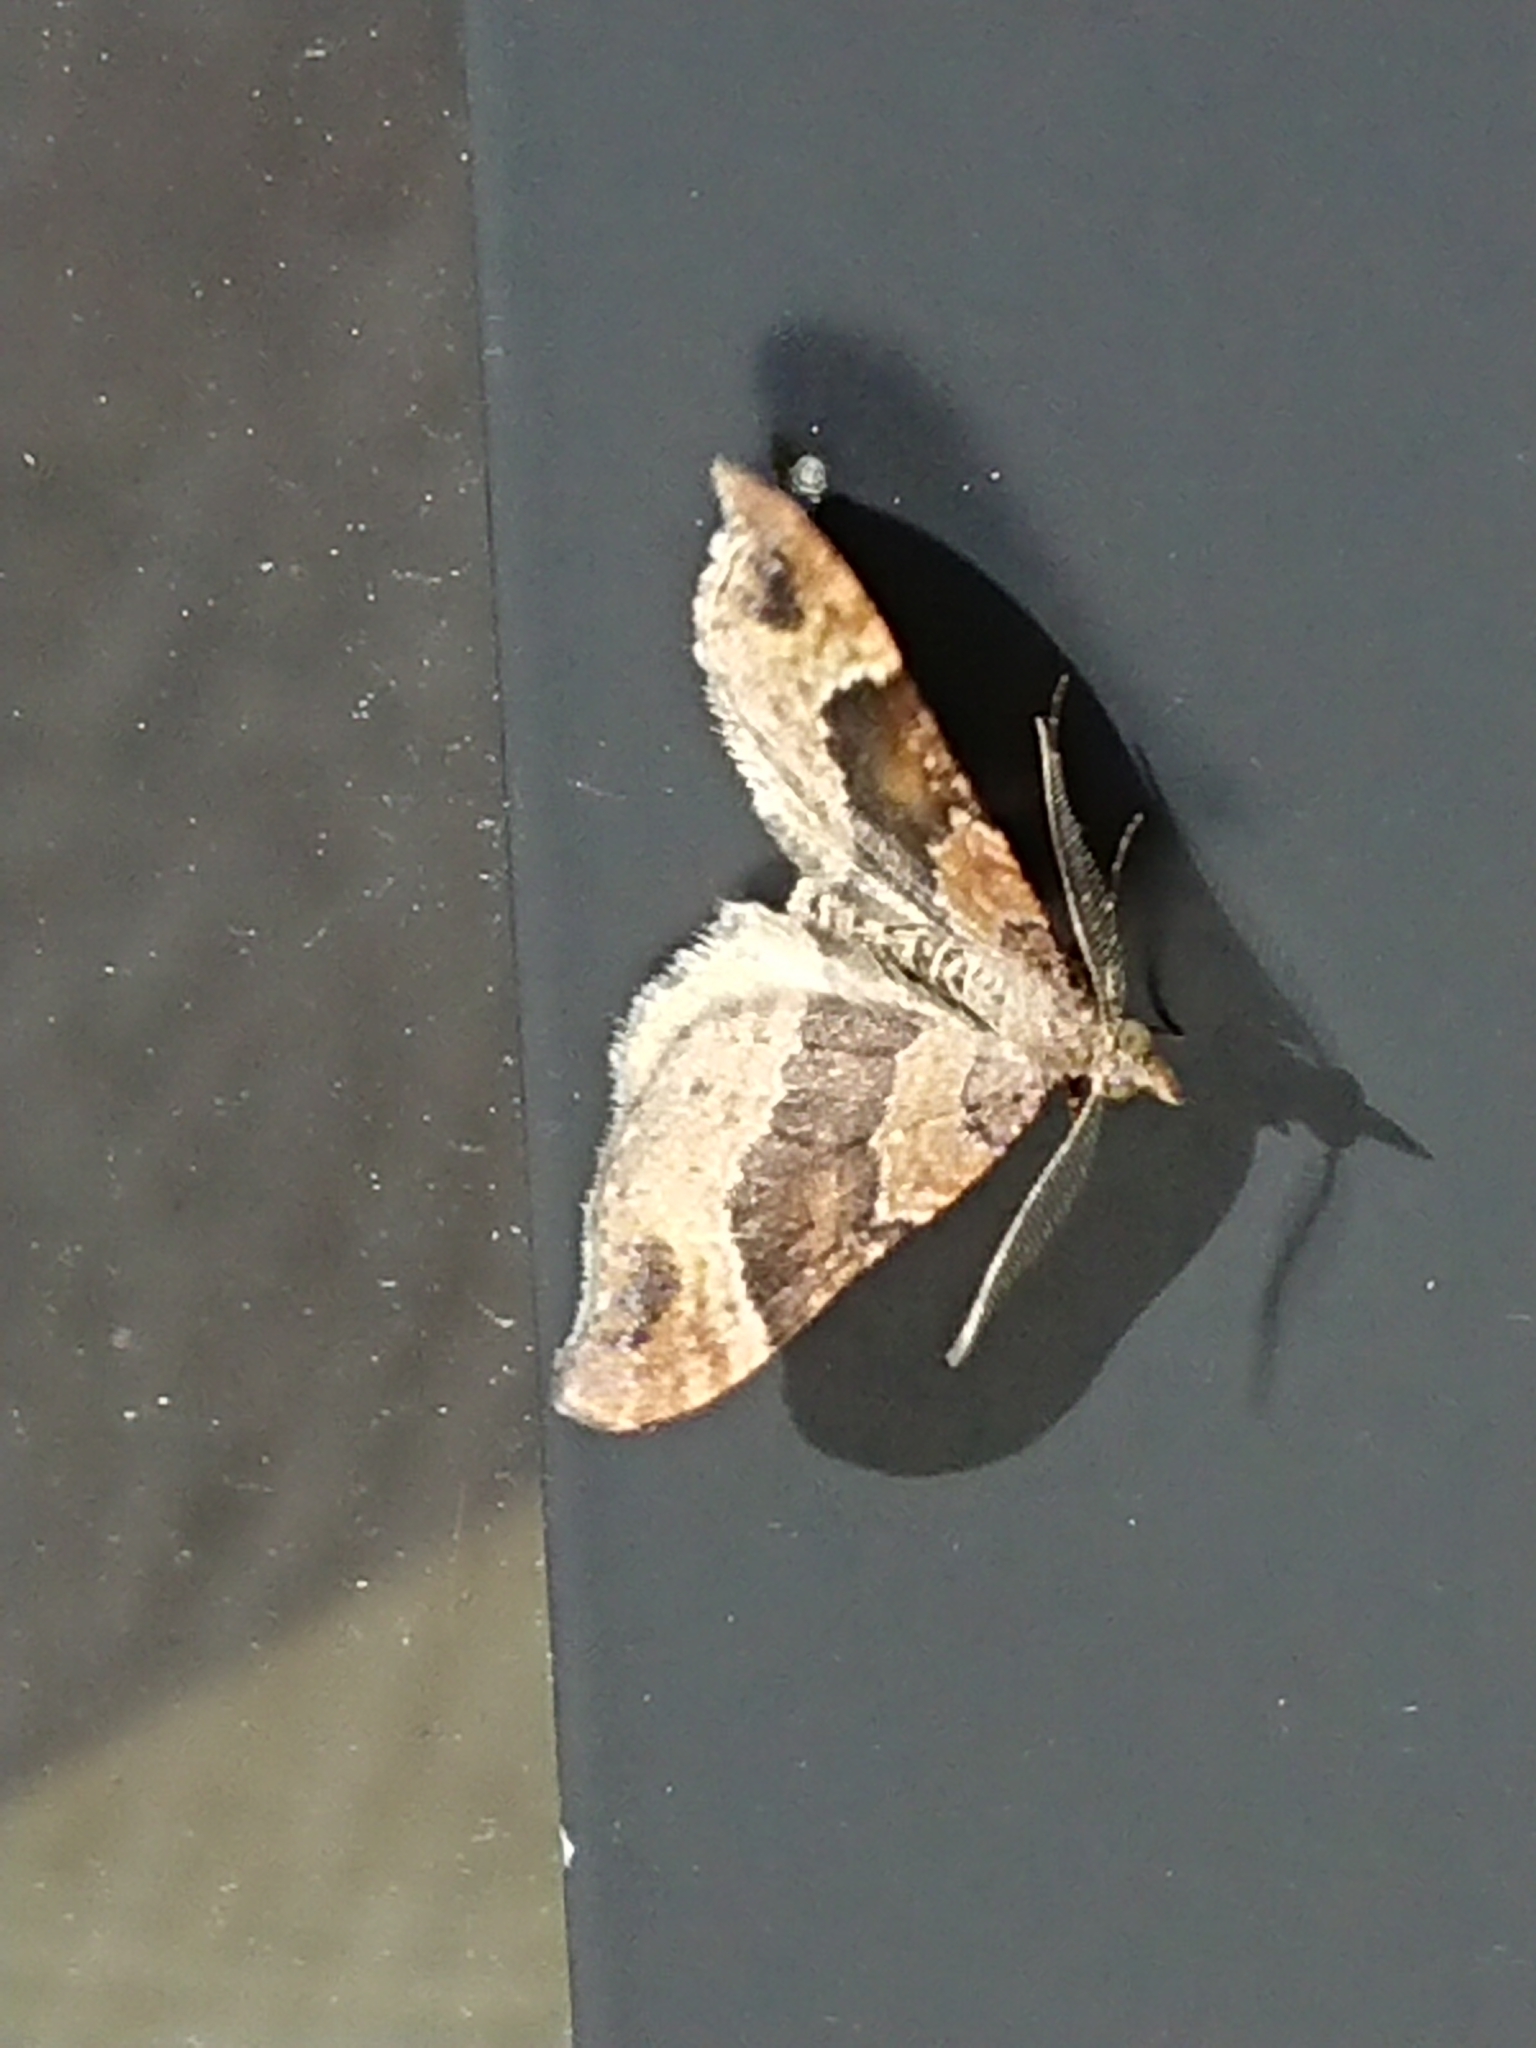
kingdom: Animalia
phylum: Arthropoda
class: Insecta
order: Lepidoptera
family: Geometridae
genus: Homodotis
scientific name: Homodotis megaspilata
